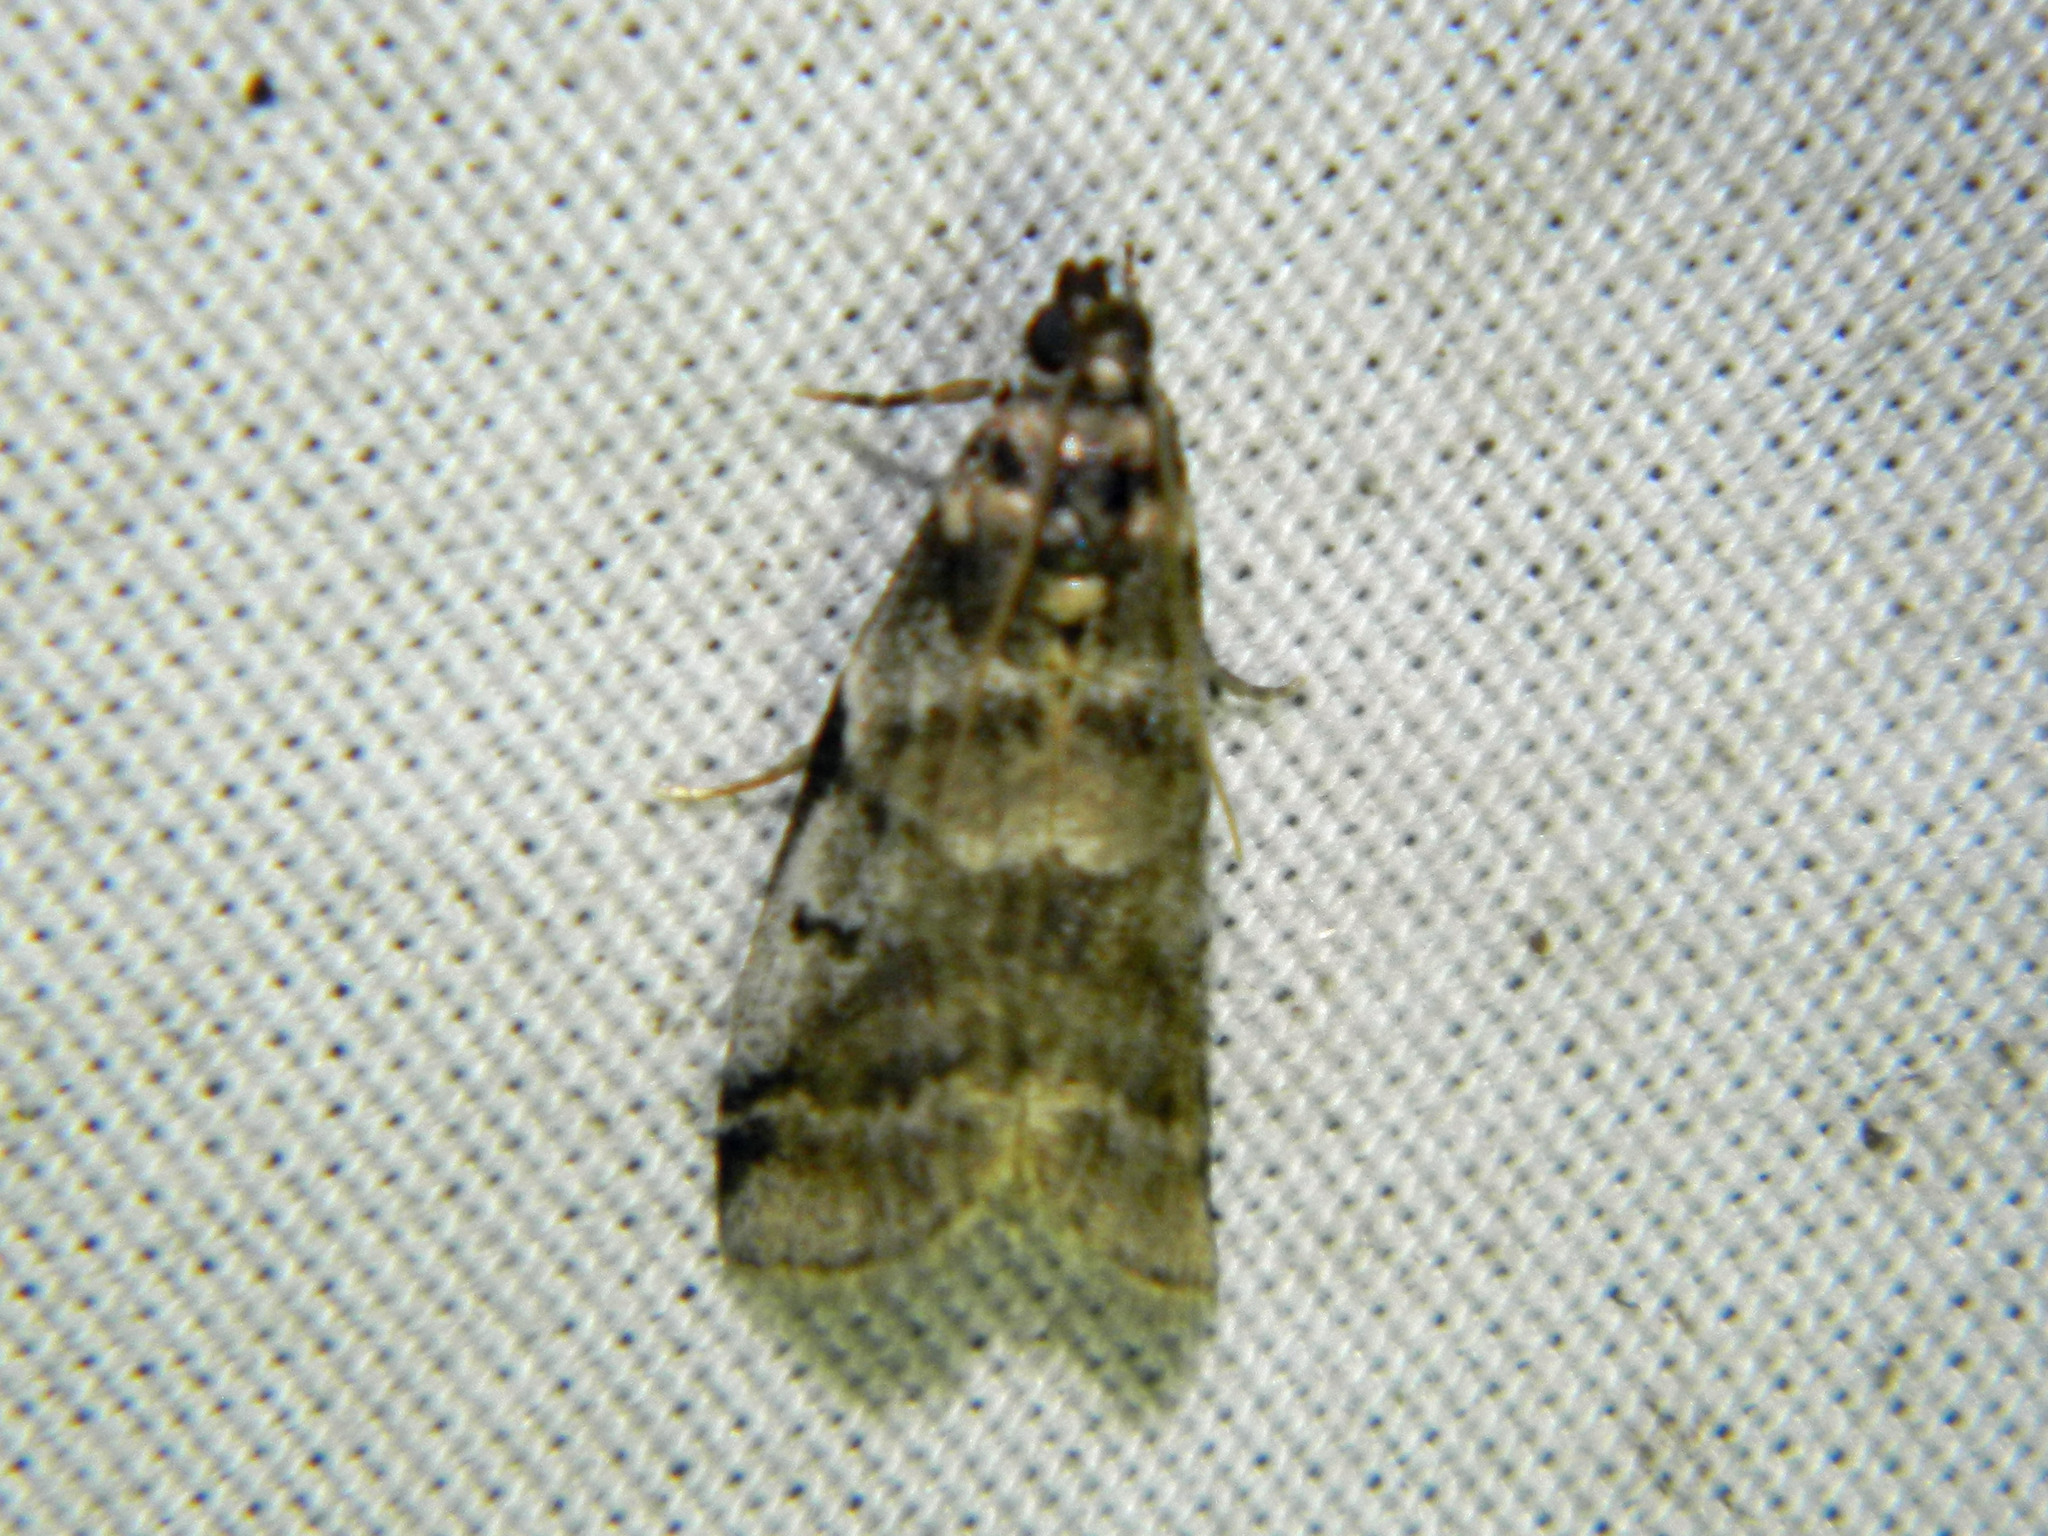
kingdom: Animalia
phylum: Arthropoda
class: Insecta
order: Lepidoptera
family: Pyralidae
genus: Acrobasis
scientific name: Acrobasis indigenella
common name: Leaf crumpler moth
